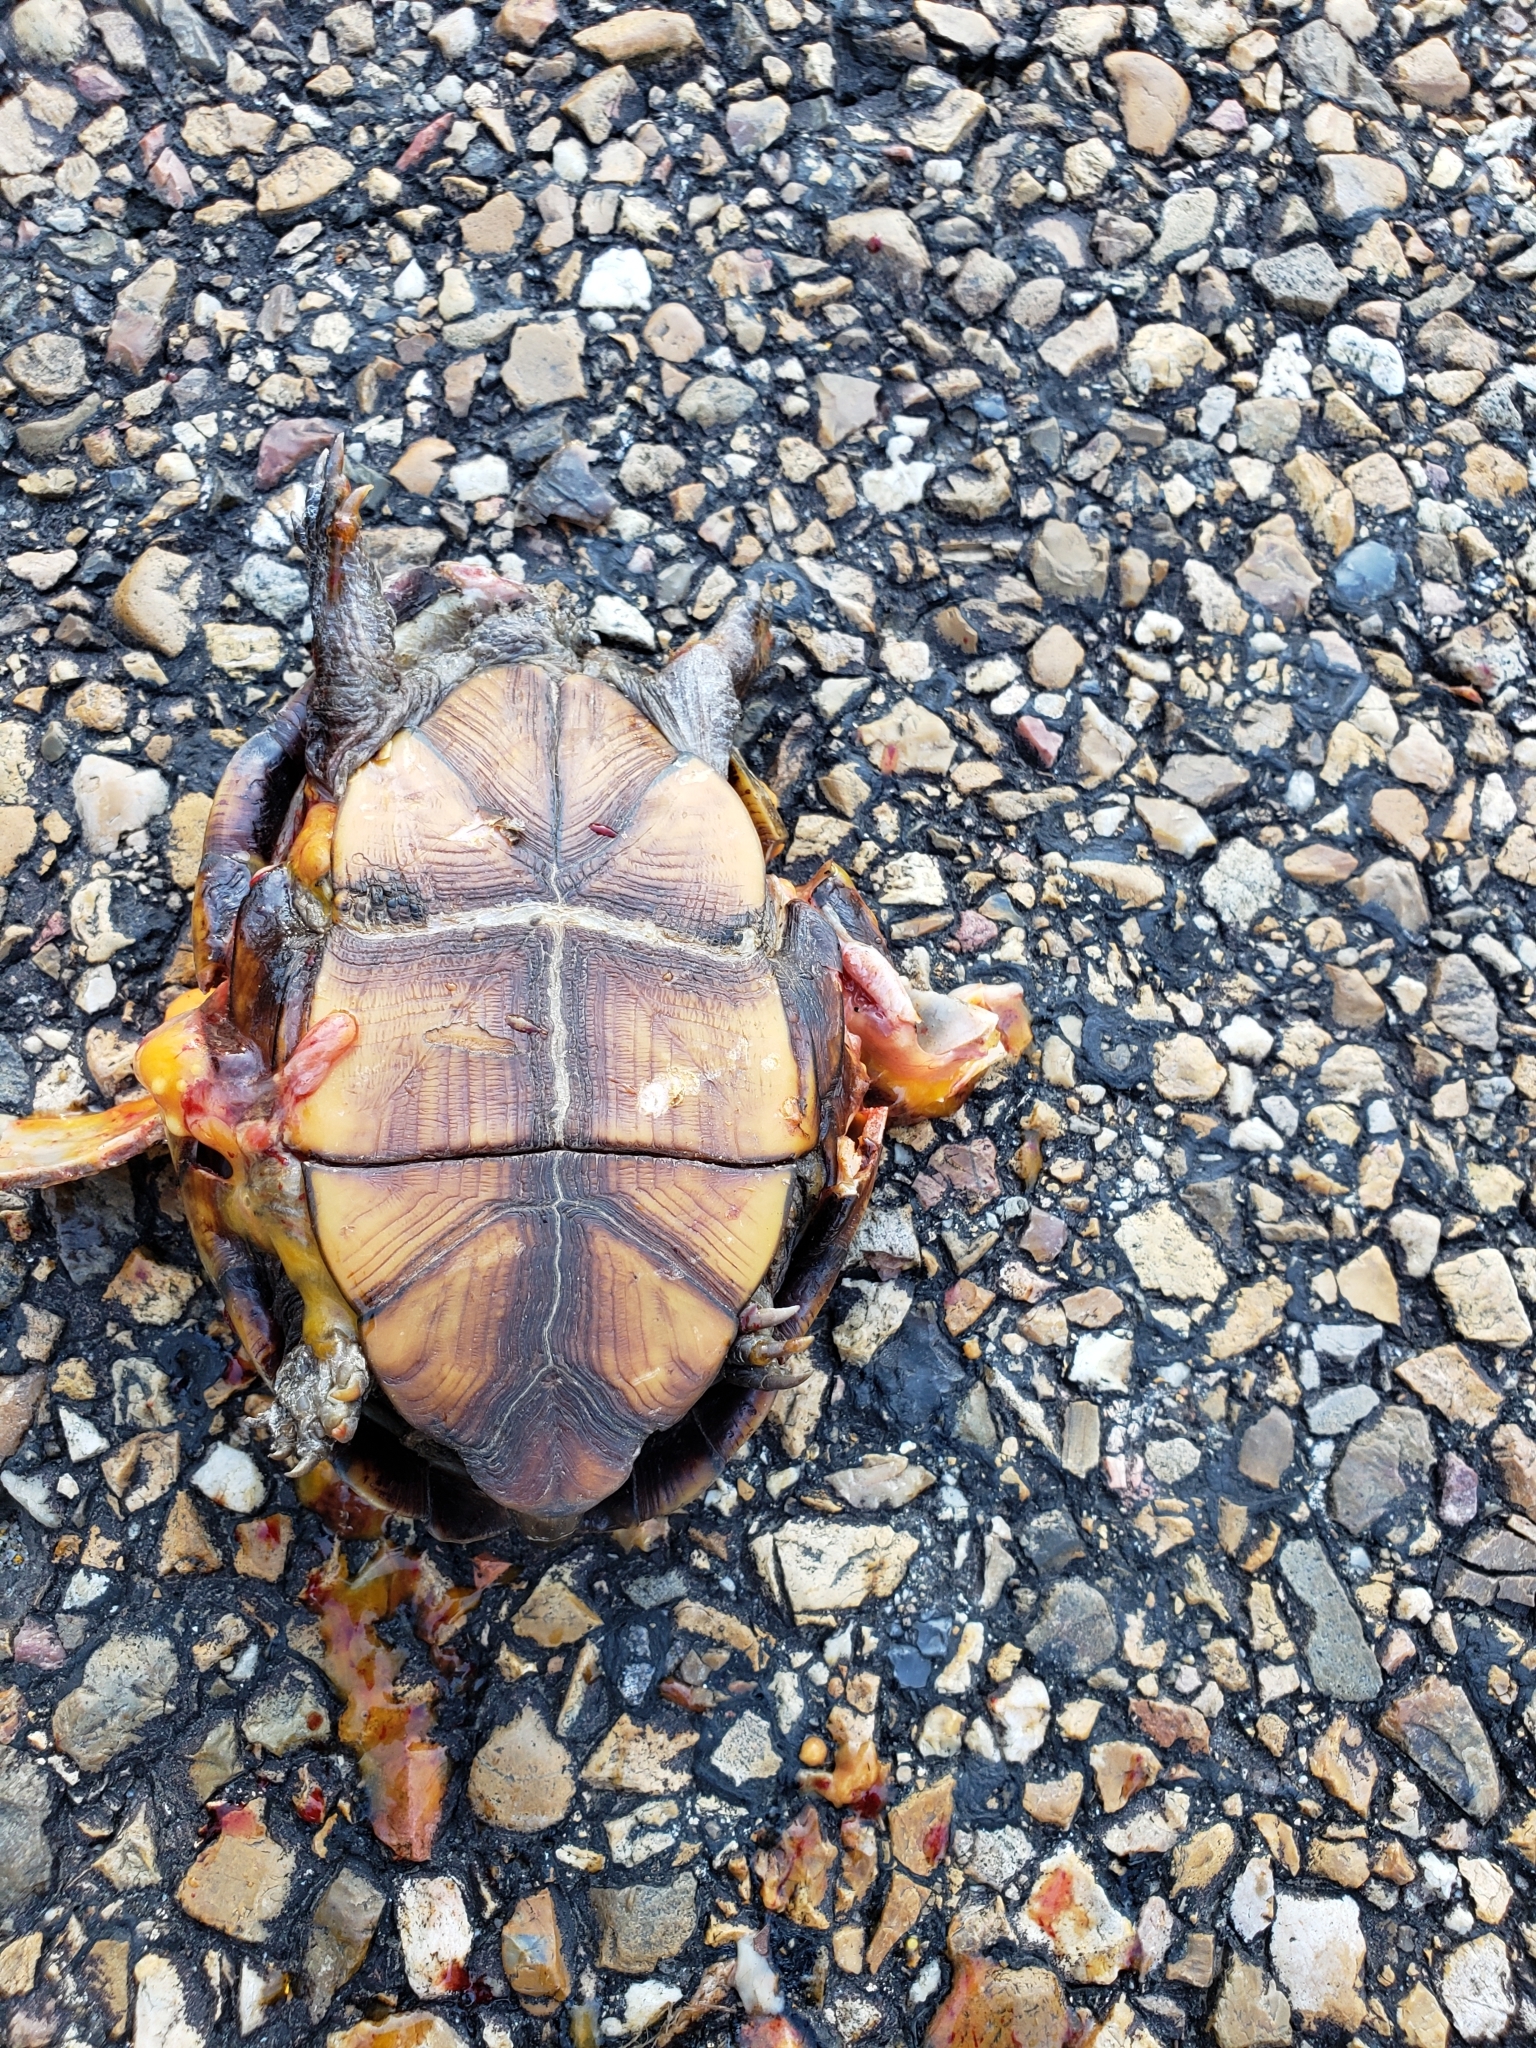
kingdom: Animalia
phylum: Chordata
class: Testudines
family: Kinosternidae
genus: Kinosternon
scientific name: Kinosternon subrubrum
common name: Eastern mud turtle
